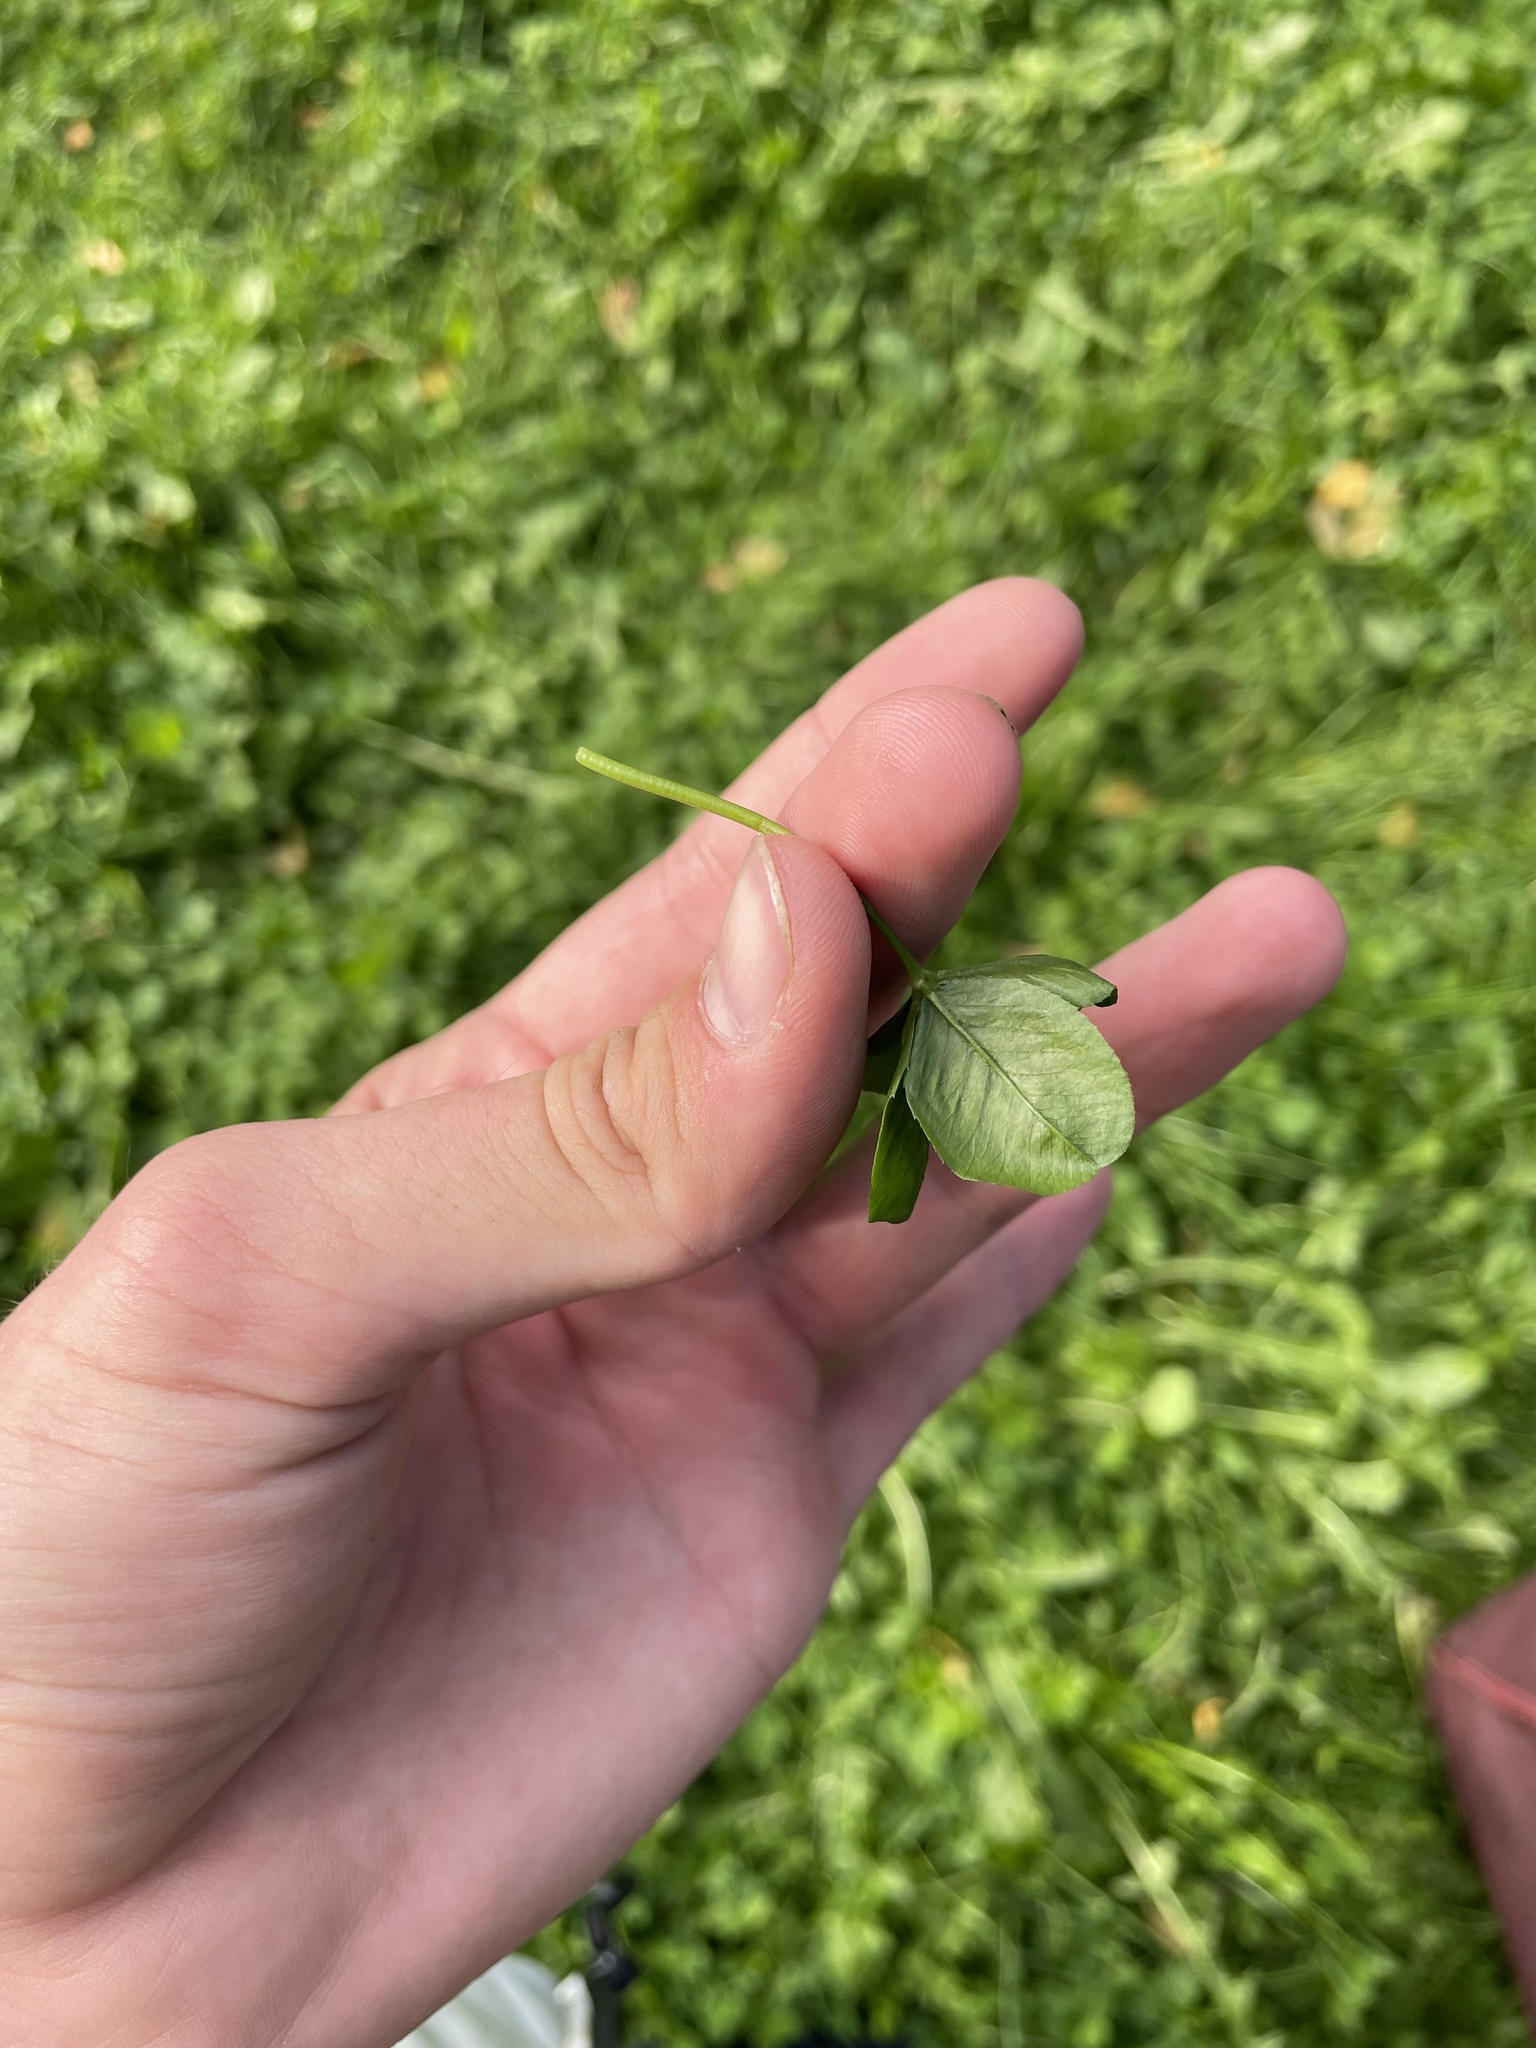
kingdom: Plantae
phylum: Tracheophyta
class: Magnoliopsida
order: Fabales
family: Fabaceae
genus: Trifolium
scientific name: Trifolium repens
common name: White clover
